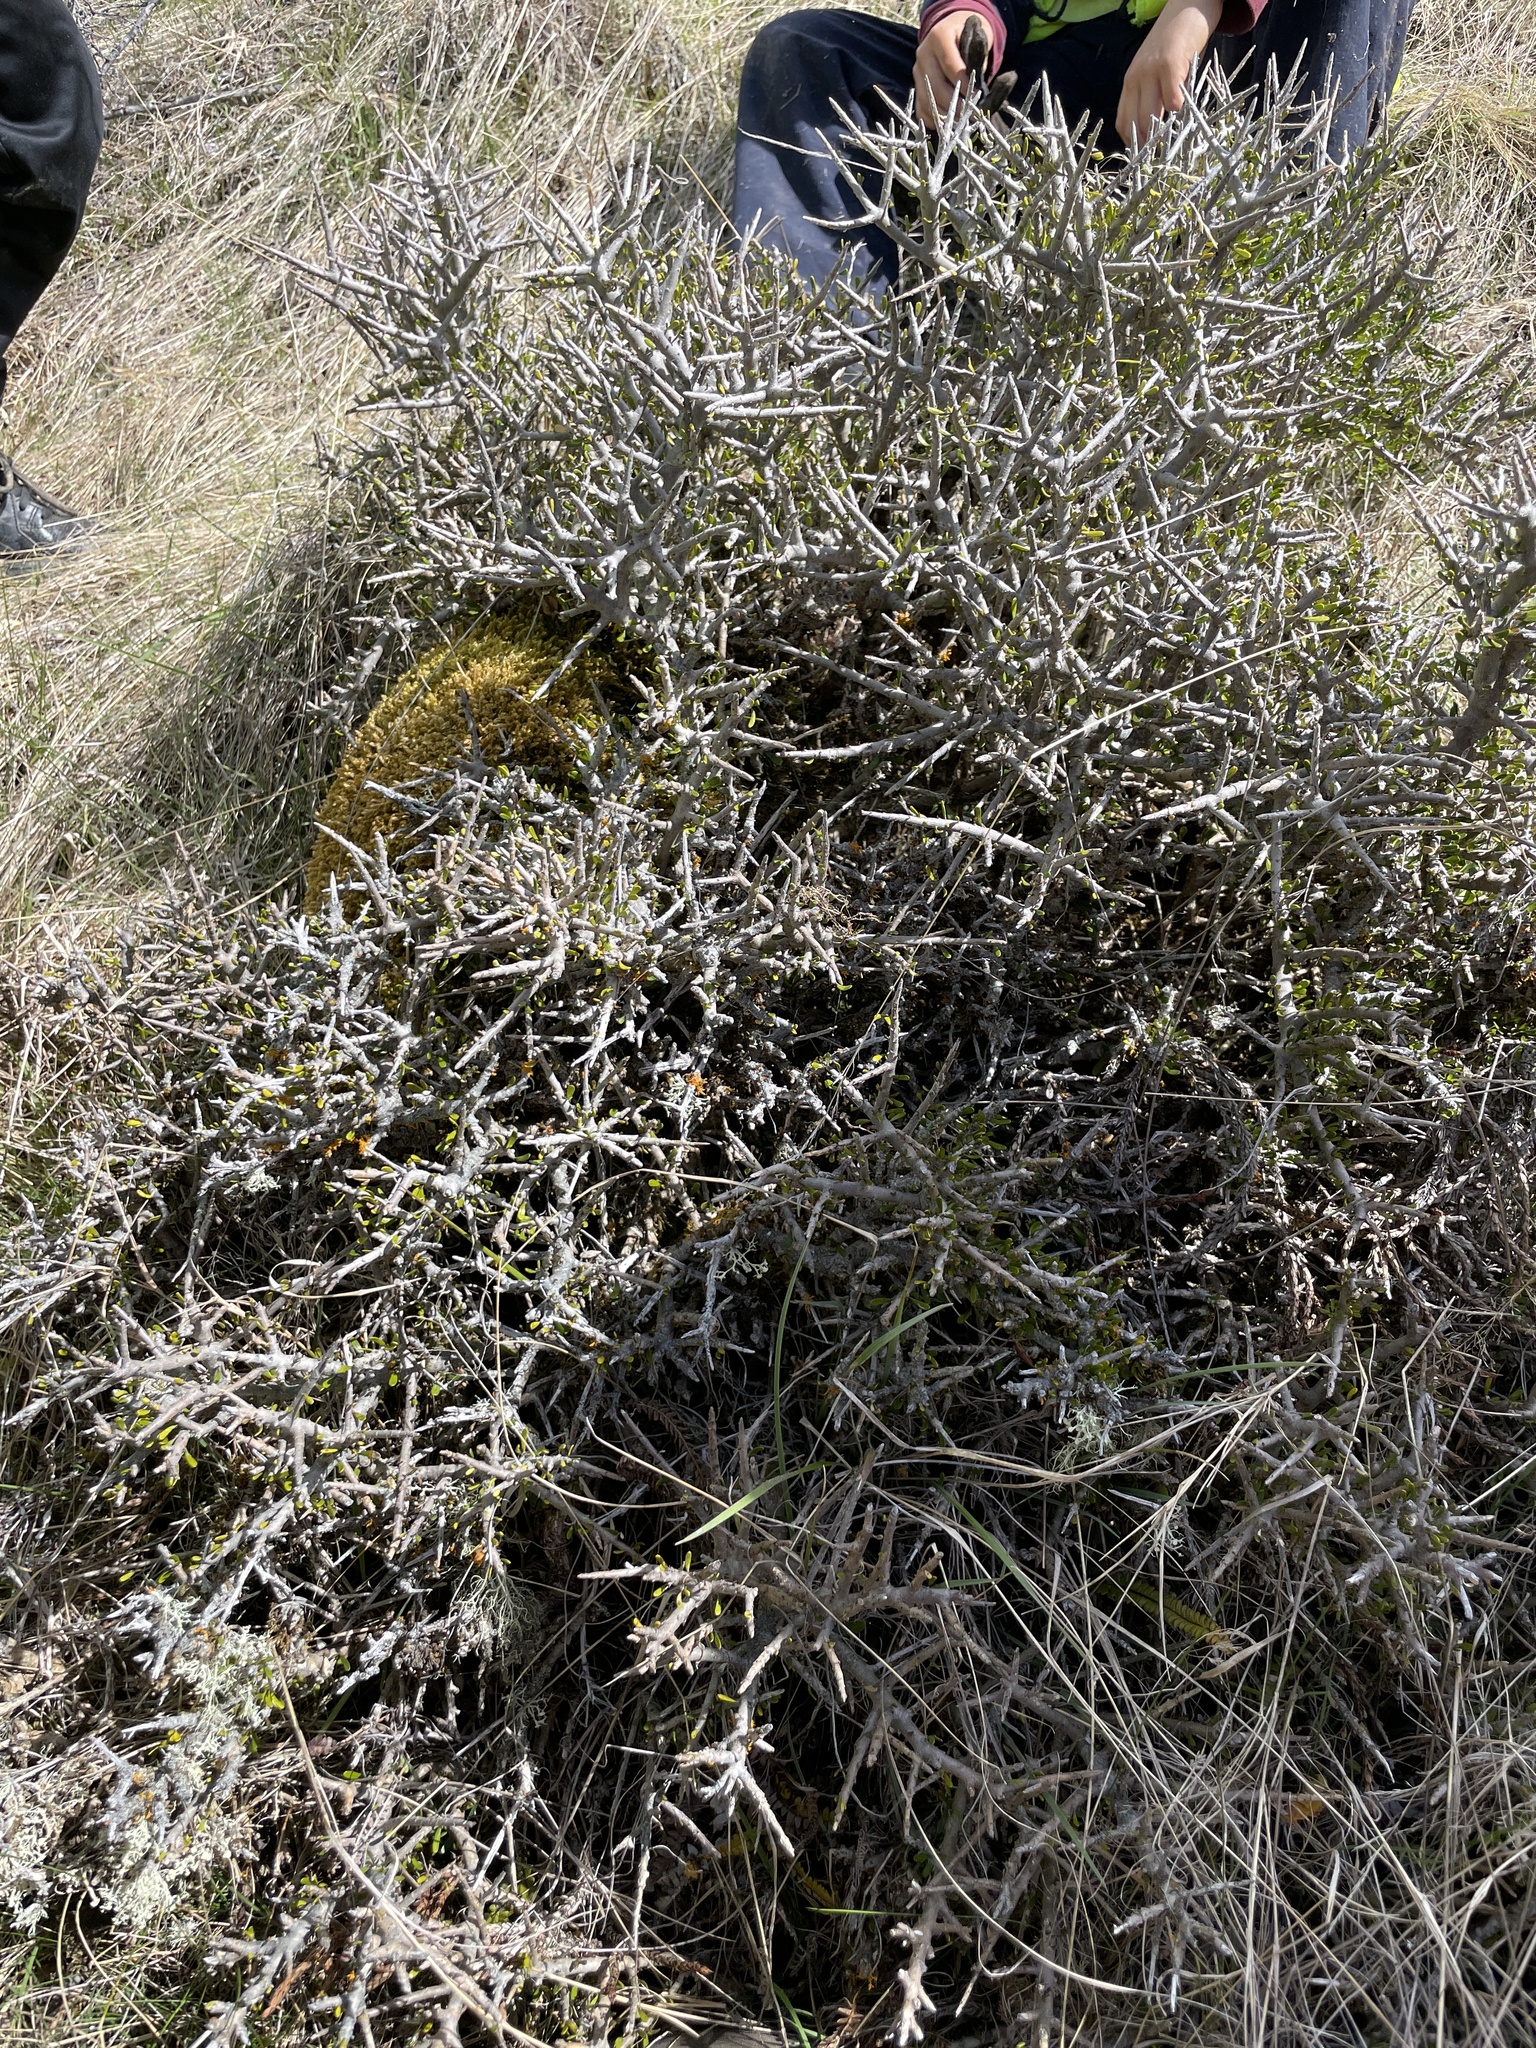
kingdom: Plantae
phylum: Tracheophyta
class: Magnoliopsida
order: Malpighiales
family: Violaceae
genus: Melicytus
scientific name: Melicytus alpinus
